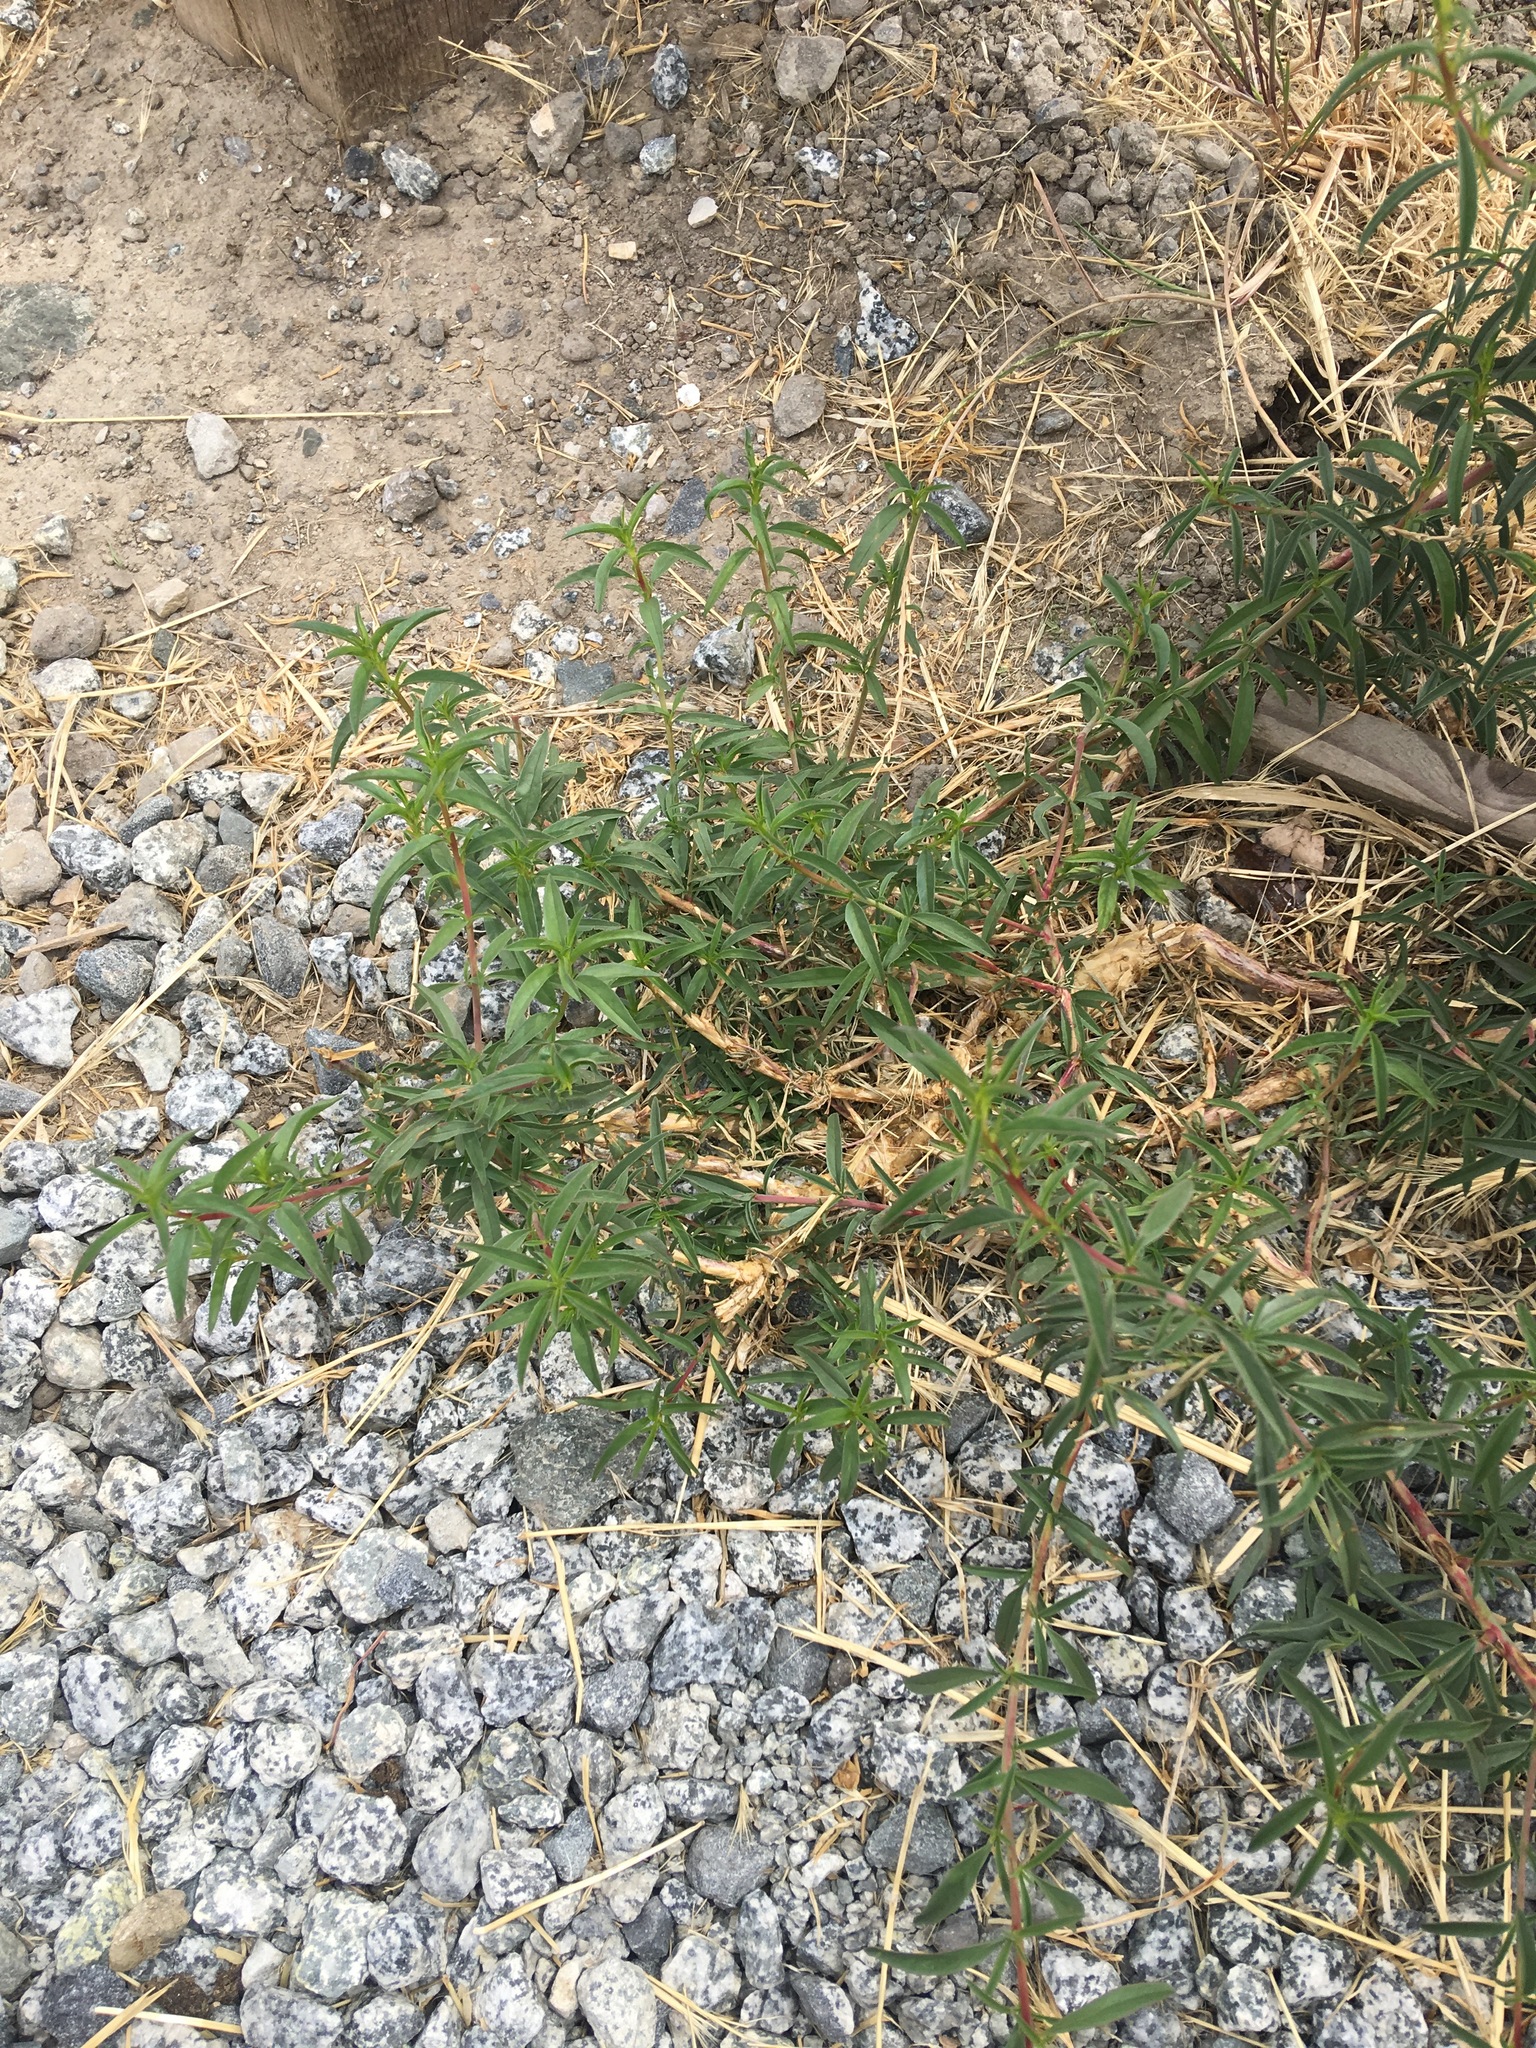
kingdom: Plantae
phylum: Tracheophyta
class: Magnoliopsida
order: Myrtales
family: Onagraceae
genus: Epilobium
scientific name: Epilobium brachycarpum
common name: Annual willowherb
